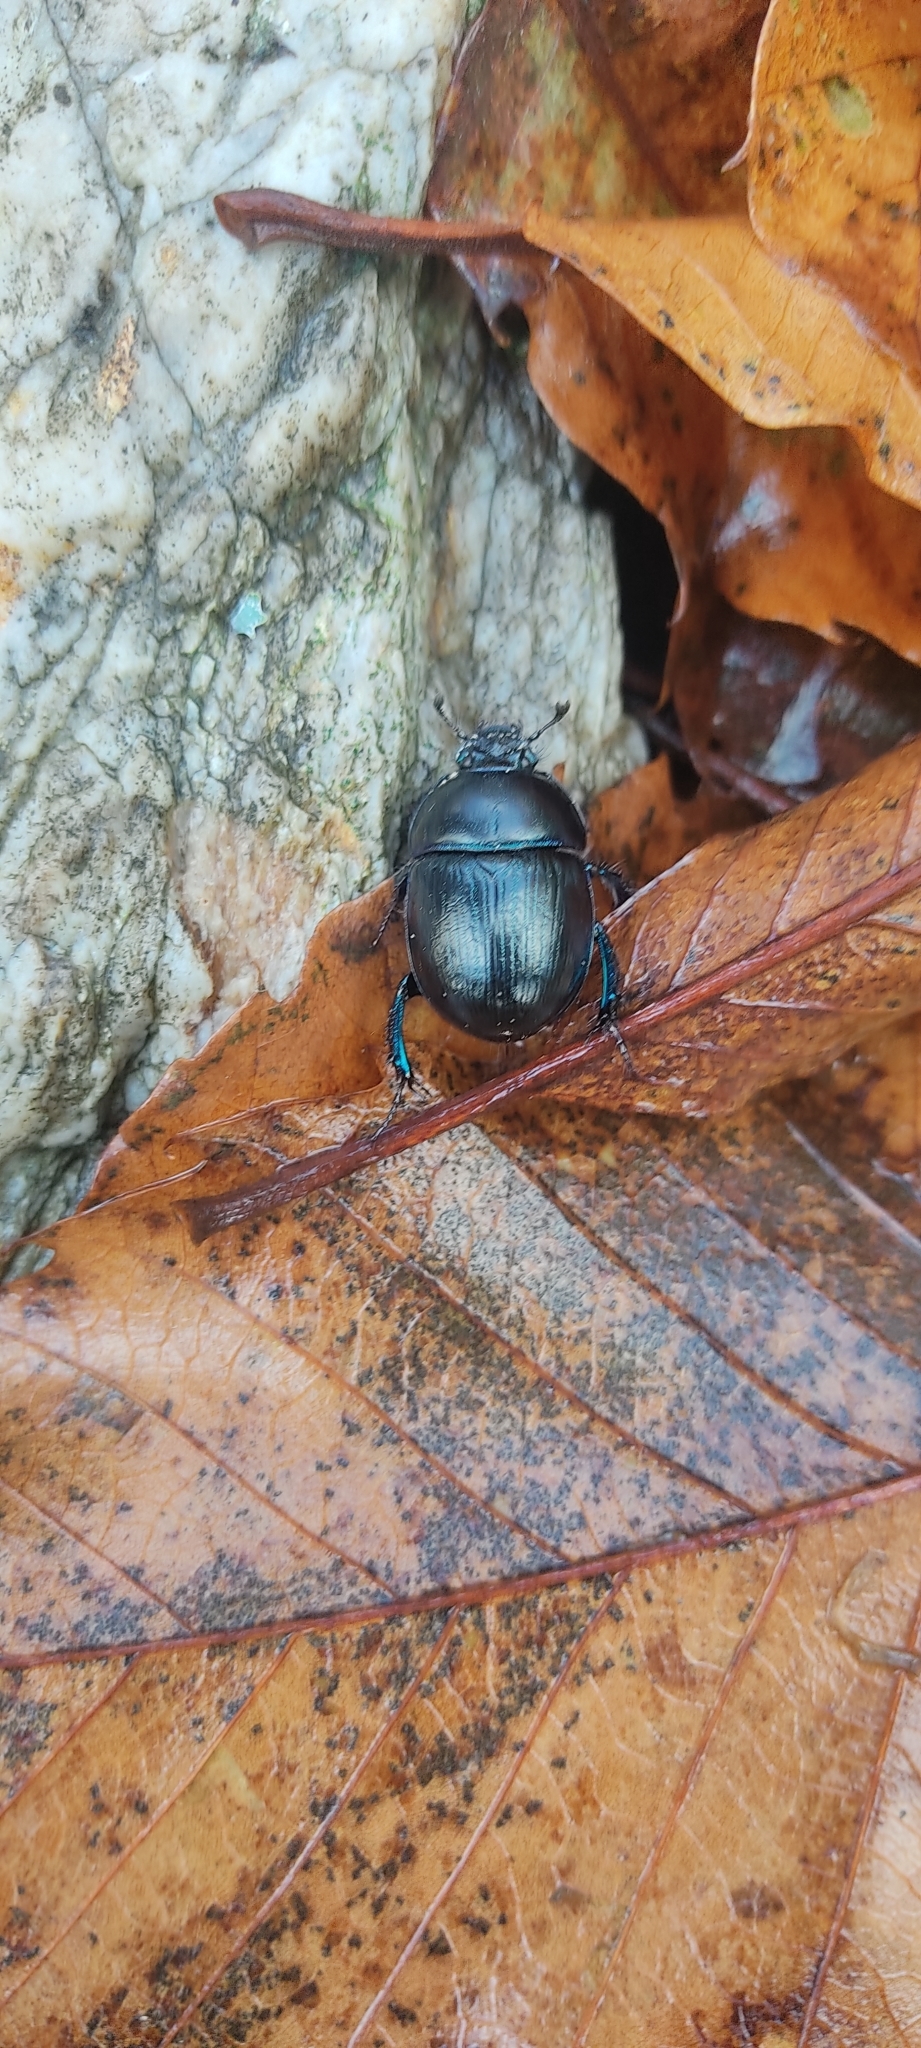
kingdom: Animalia
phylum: Arthropoda
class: Insecta
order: Coleoptera
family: Geotrupidae
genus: Anoplotrupes
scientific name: Anoplotrupes stercorosus
